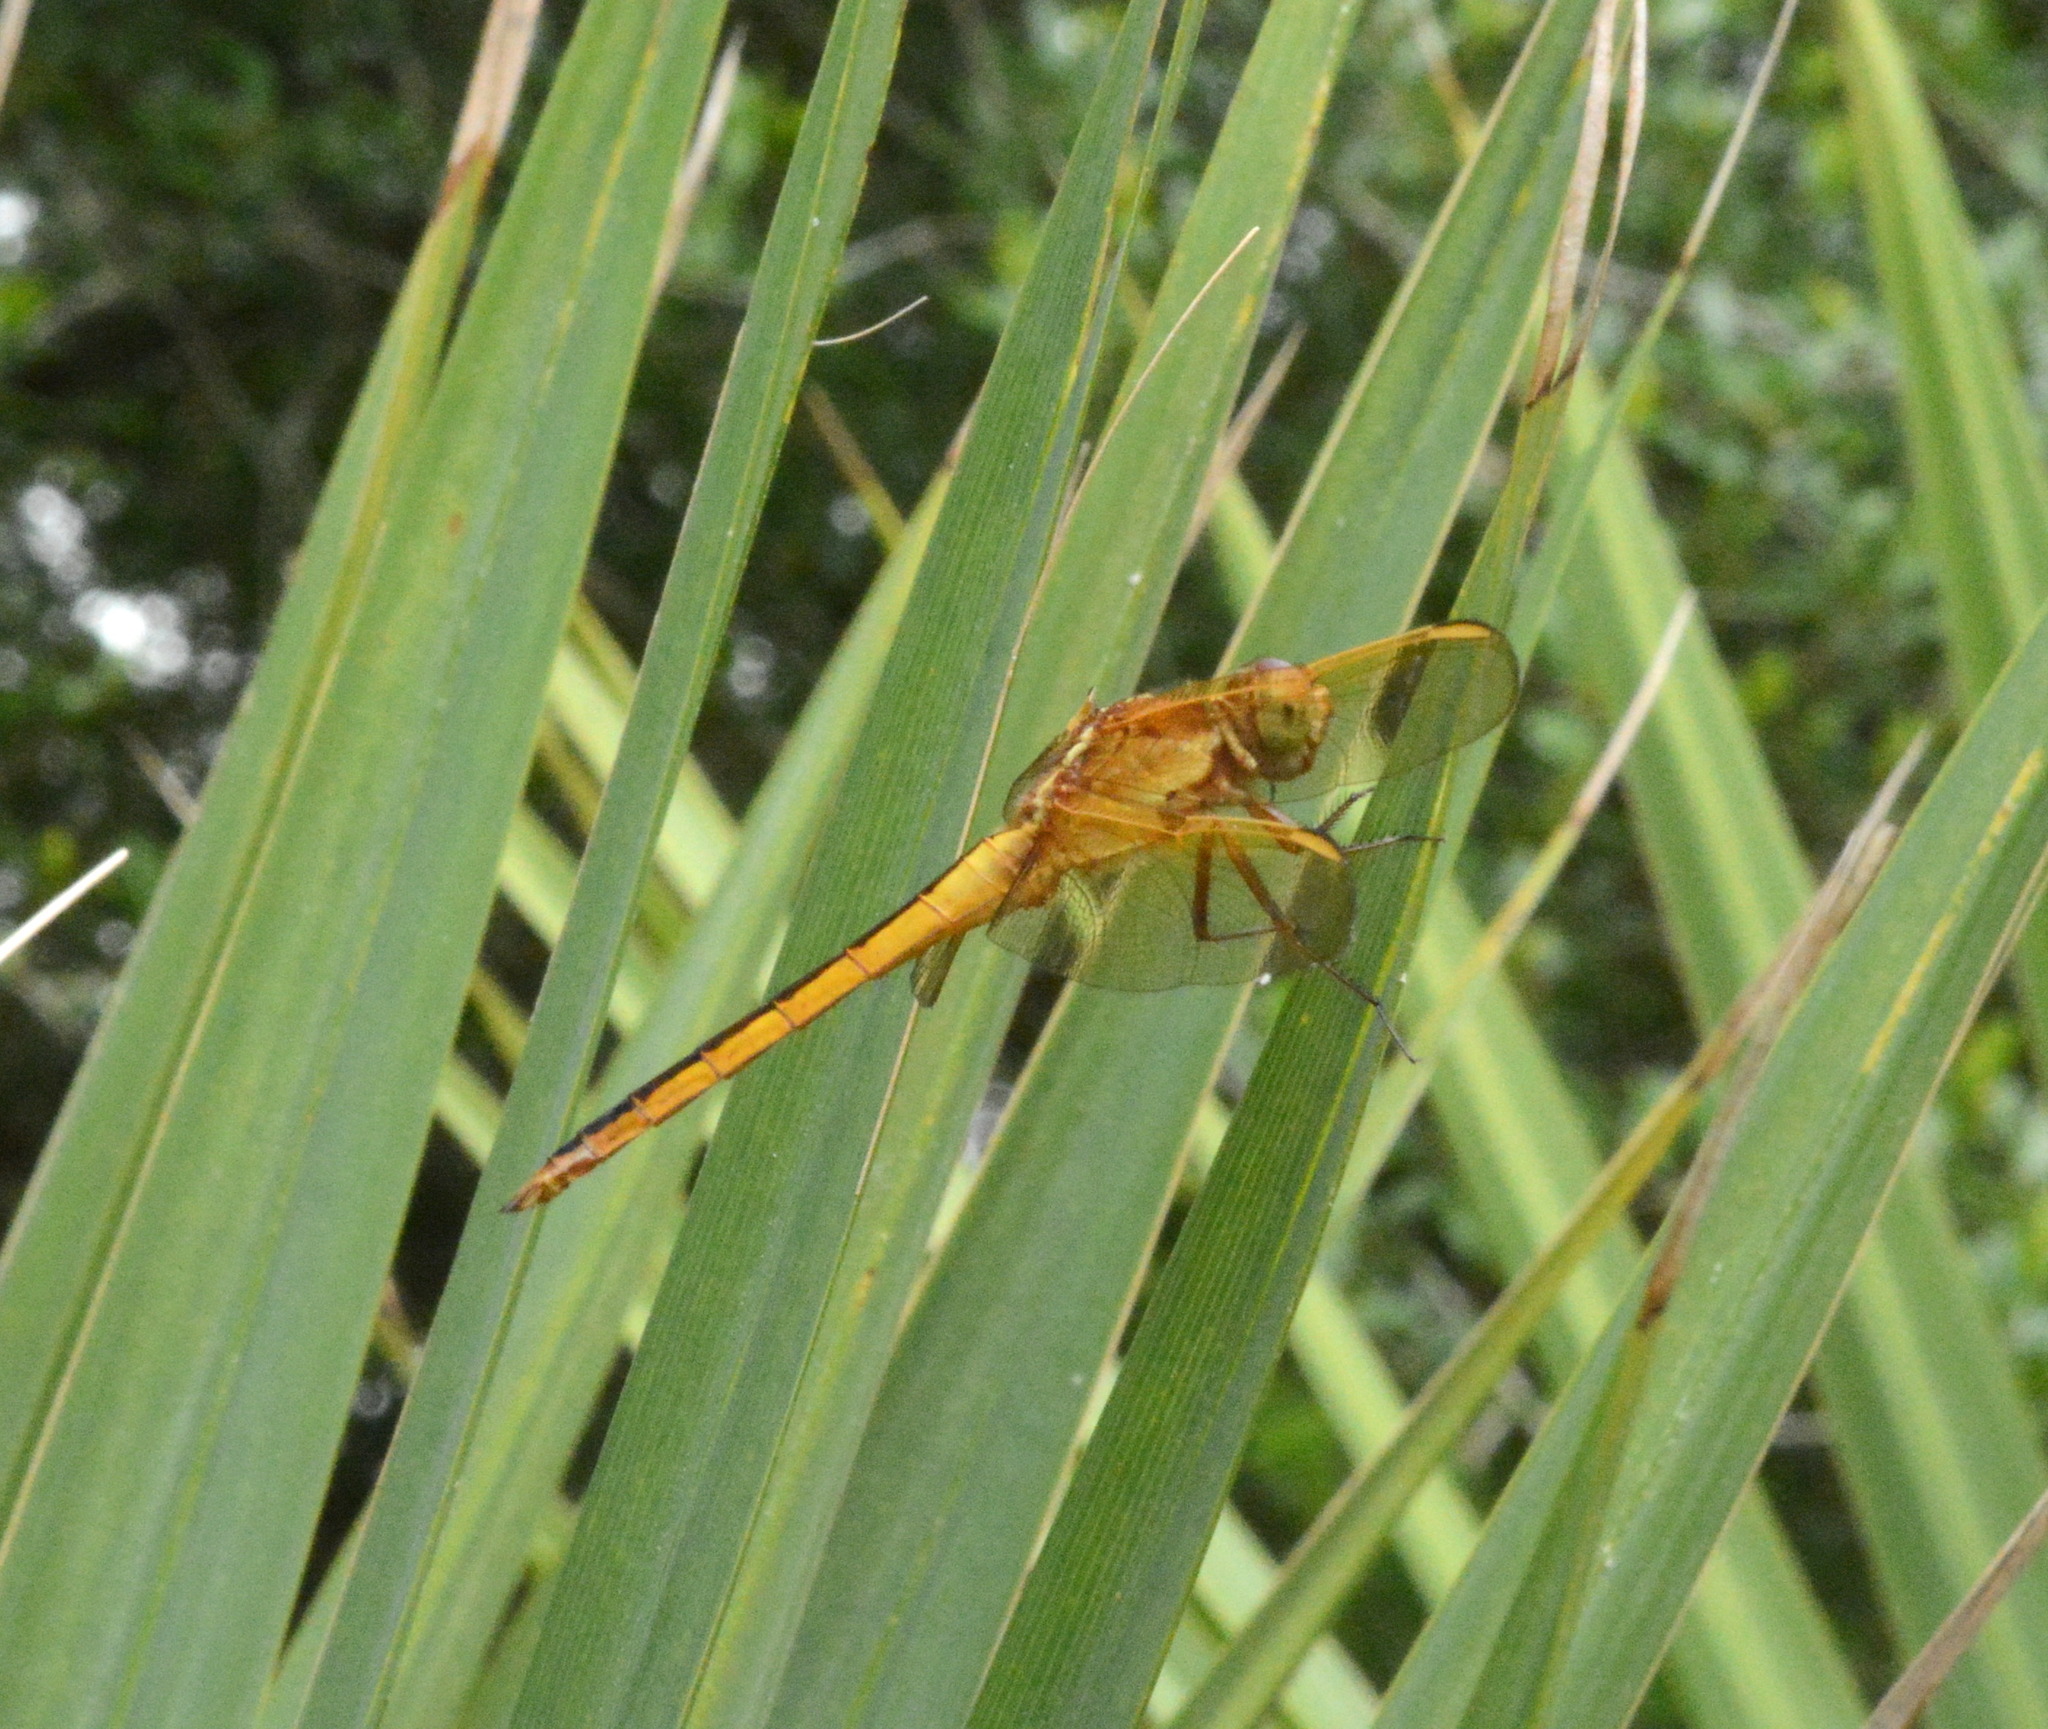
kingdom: Animalia
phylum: Arthropoda
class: Insecta
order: Odonata
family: Libellulidae
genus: Libellula
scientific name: Libellula needhami
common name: Needham's skimmer
